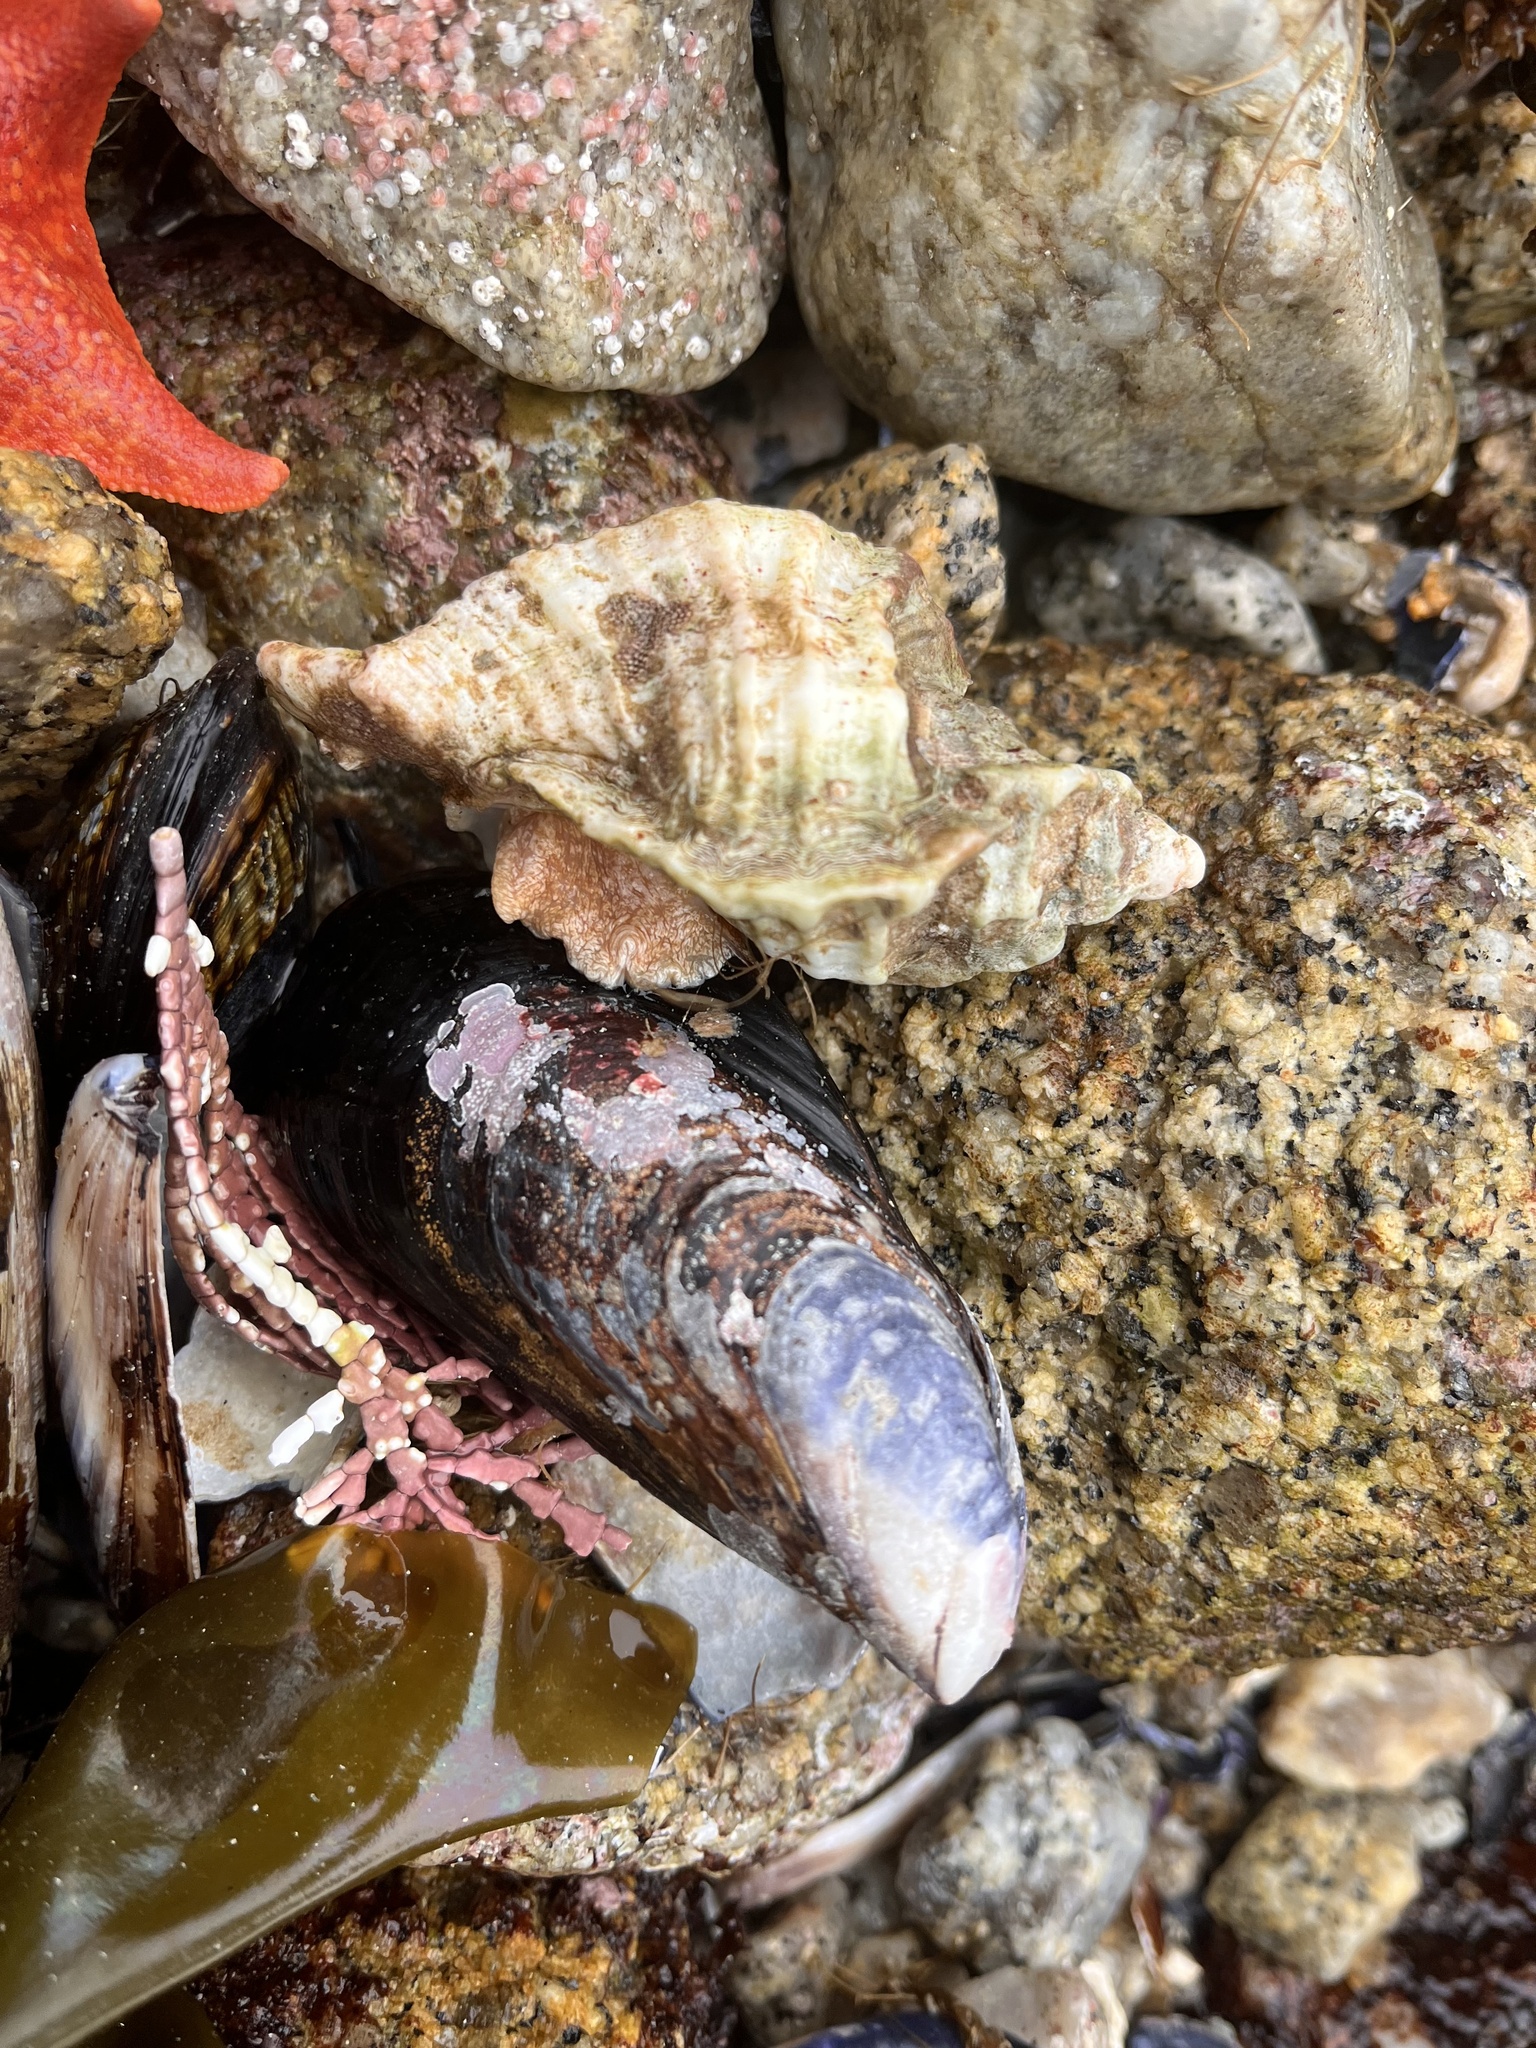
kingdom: Animalia
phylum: Mollusca
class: Gastropoda
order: Neogastropoda
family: Muricidae
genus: Ceratostoma
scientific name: Ceratostoma foliatum
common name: Foliate thorn purpura
